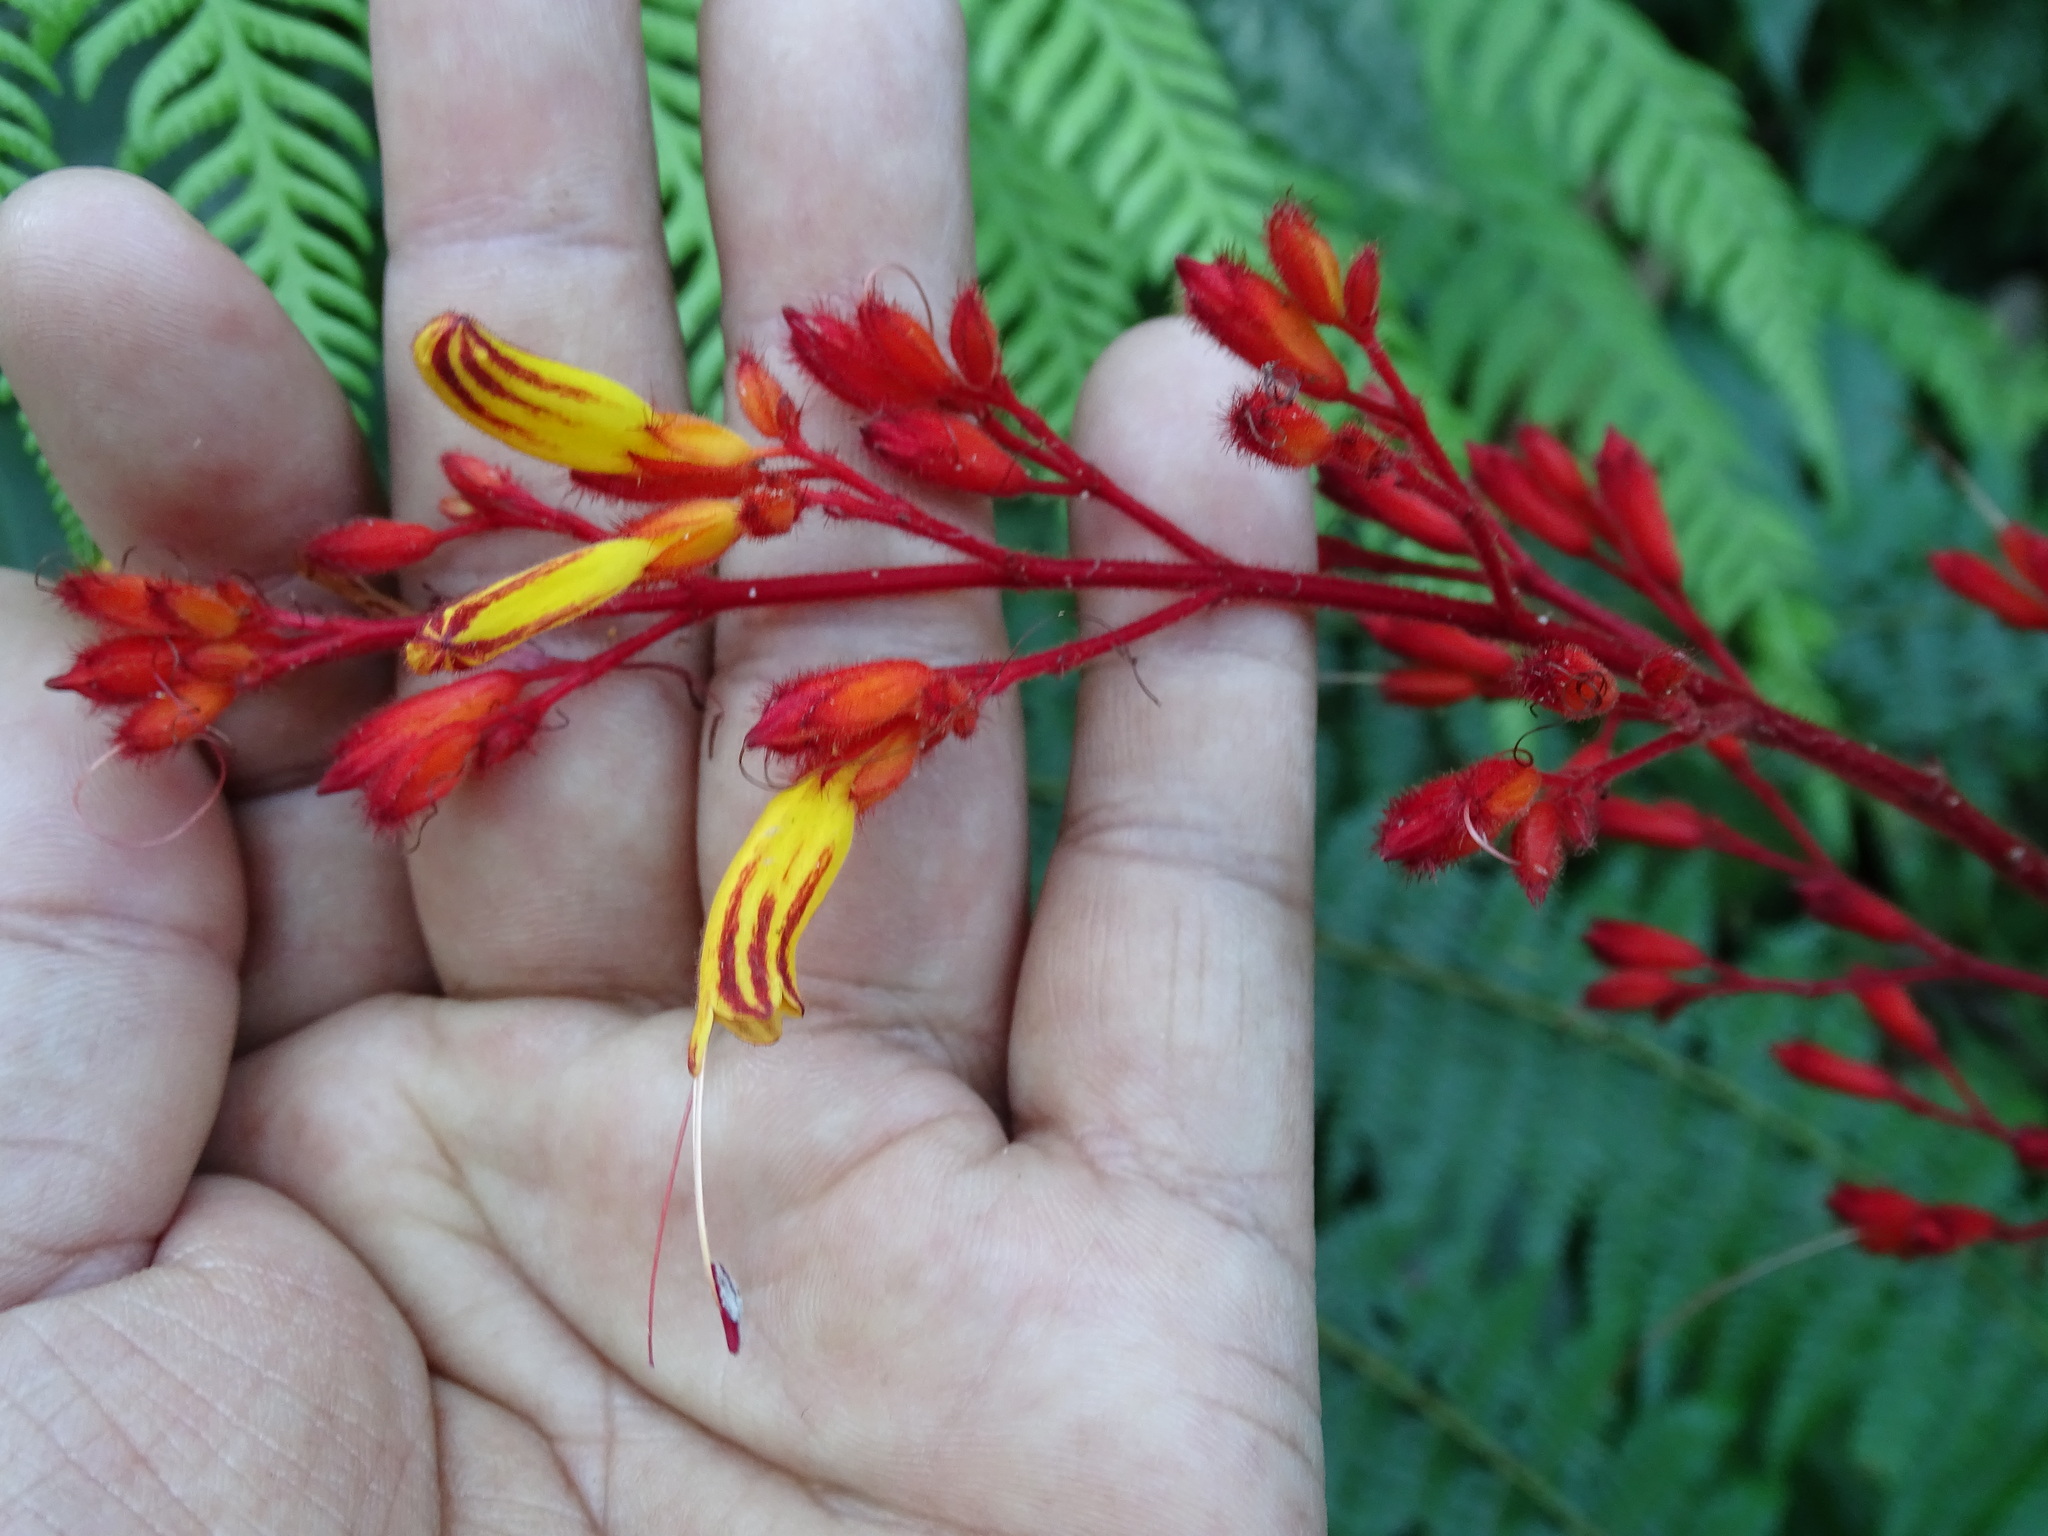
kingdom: Plantae
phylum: Tracheophyta
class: Magnoliopsida
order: Lamiales
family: Acanthaceae
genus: Stenostephanus
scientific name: Stenostephanus monolophus
